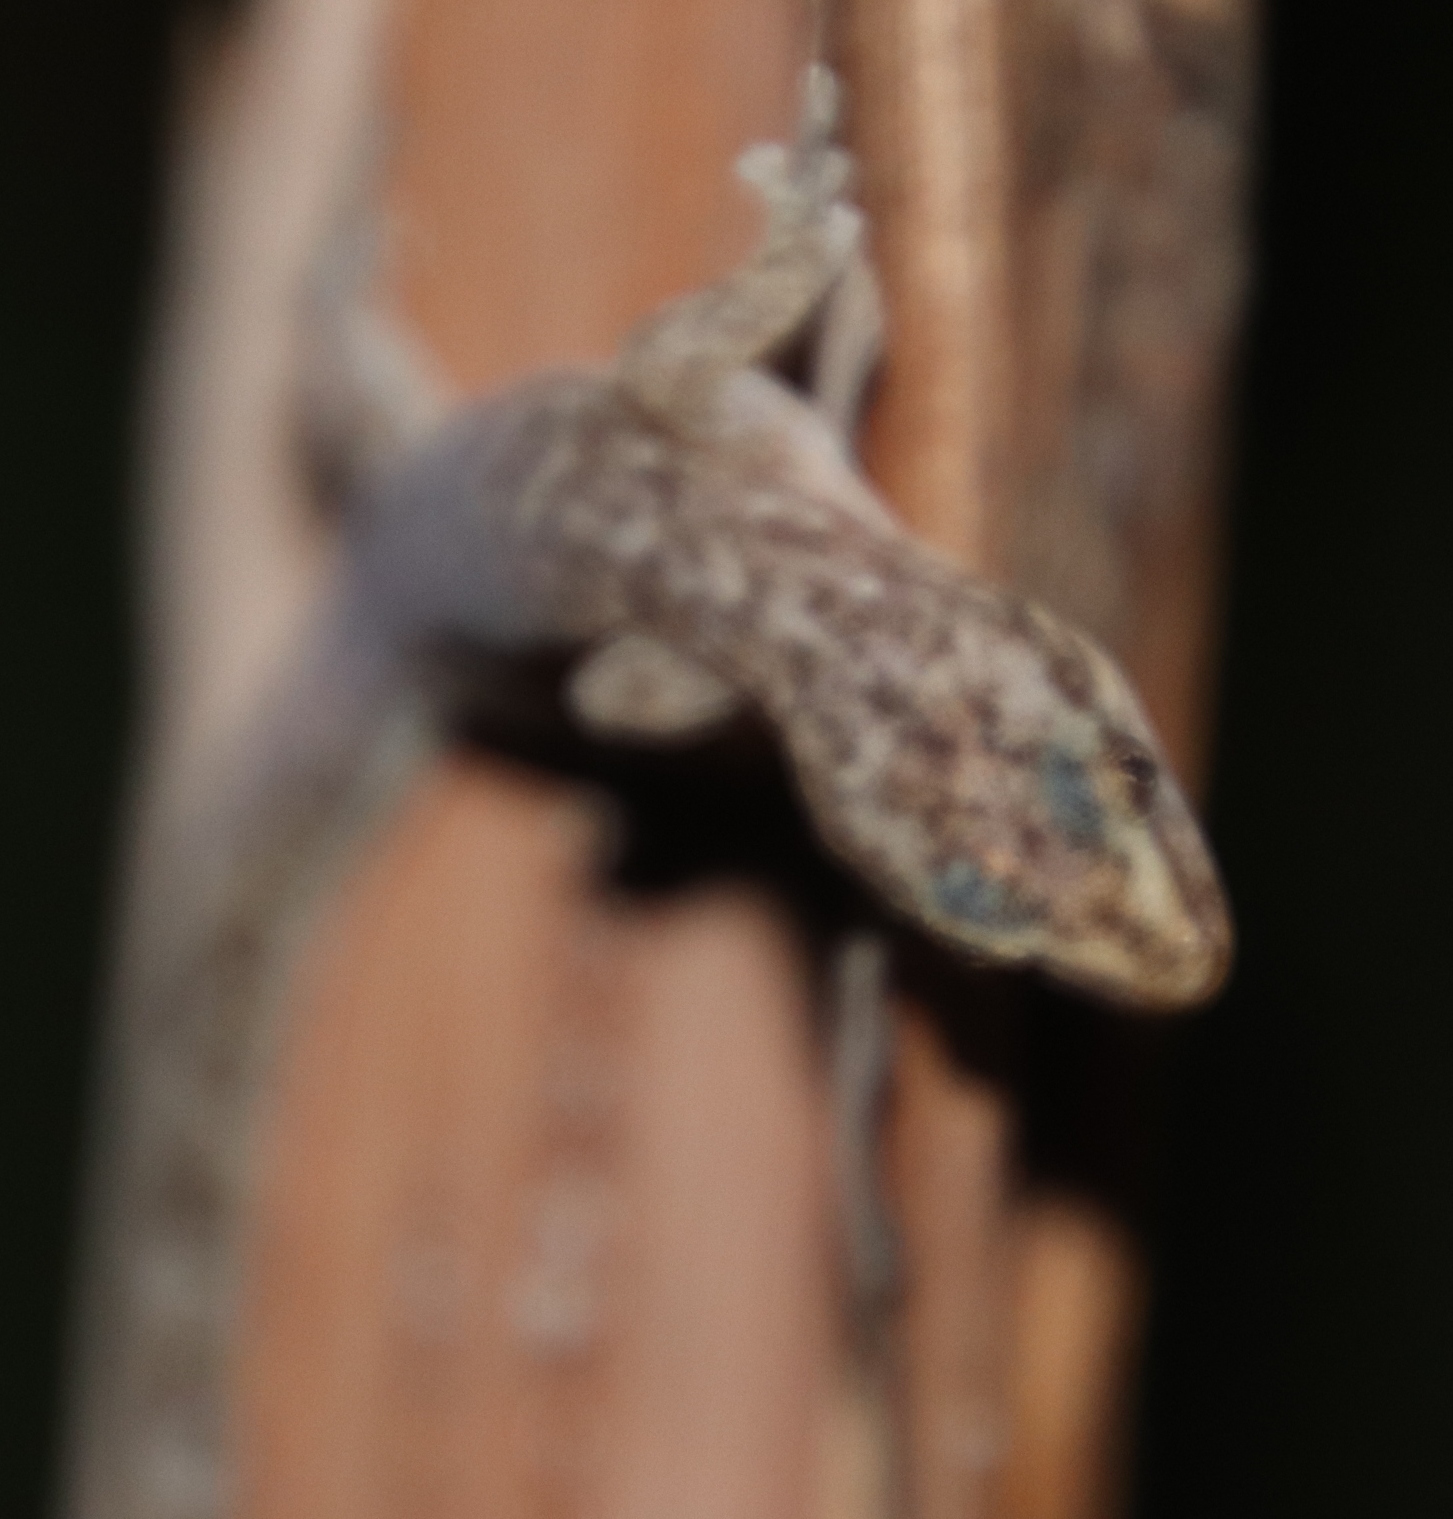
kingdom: Animalia
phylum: Chordata
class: Squamata
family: Gekkonidae
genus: Afrogecko
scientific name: Afrogecko porphyreus
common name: Marbled leaf-toed gecko
